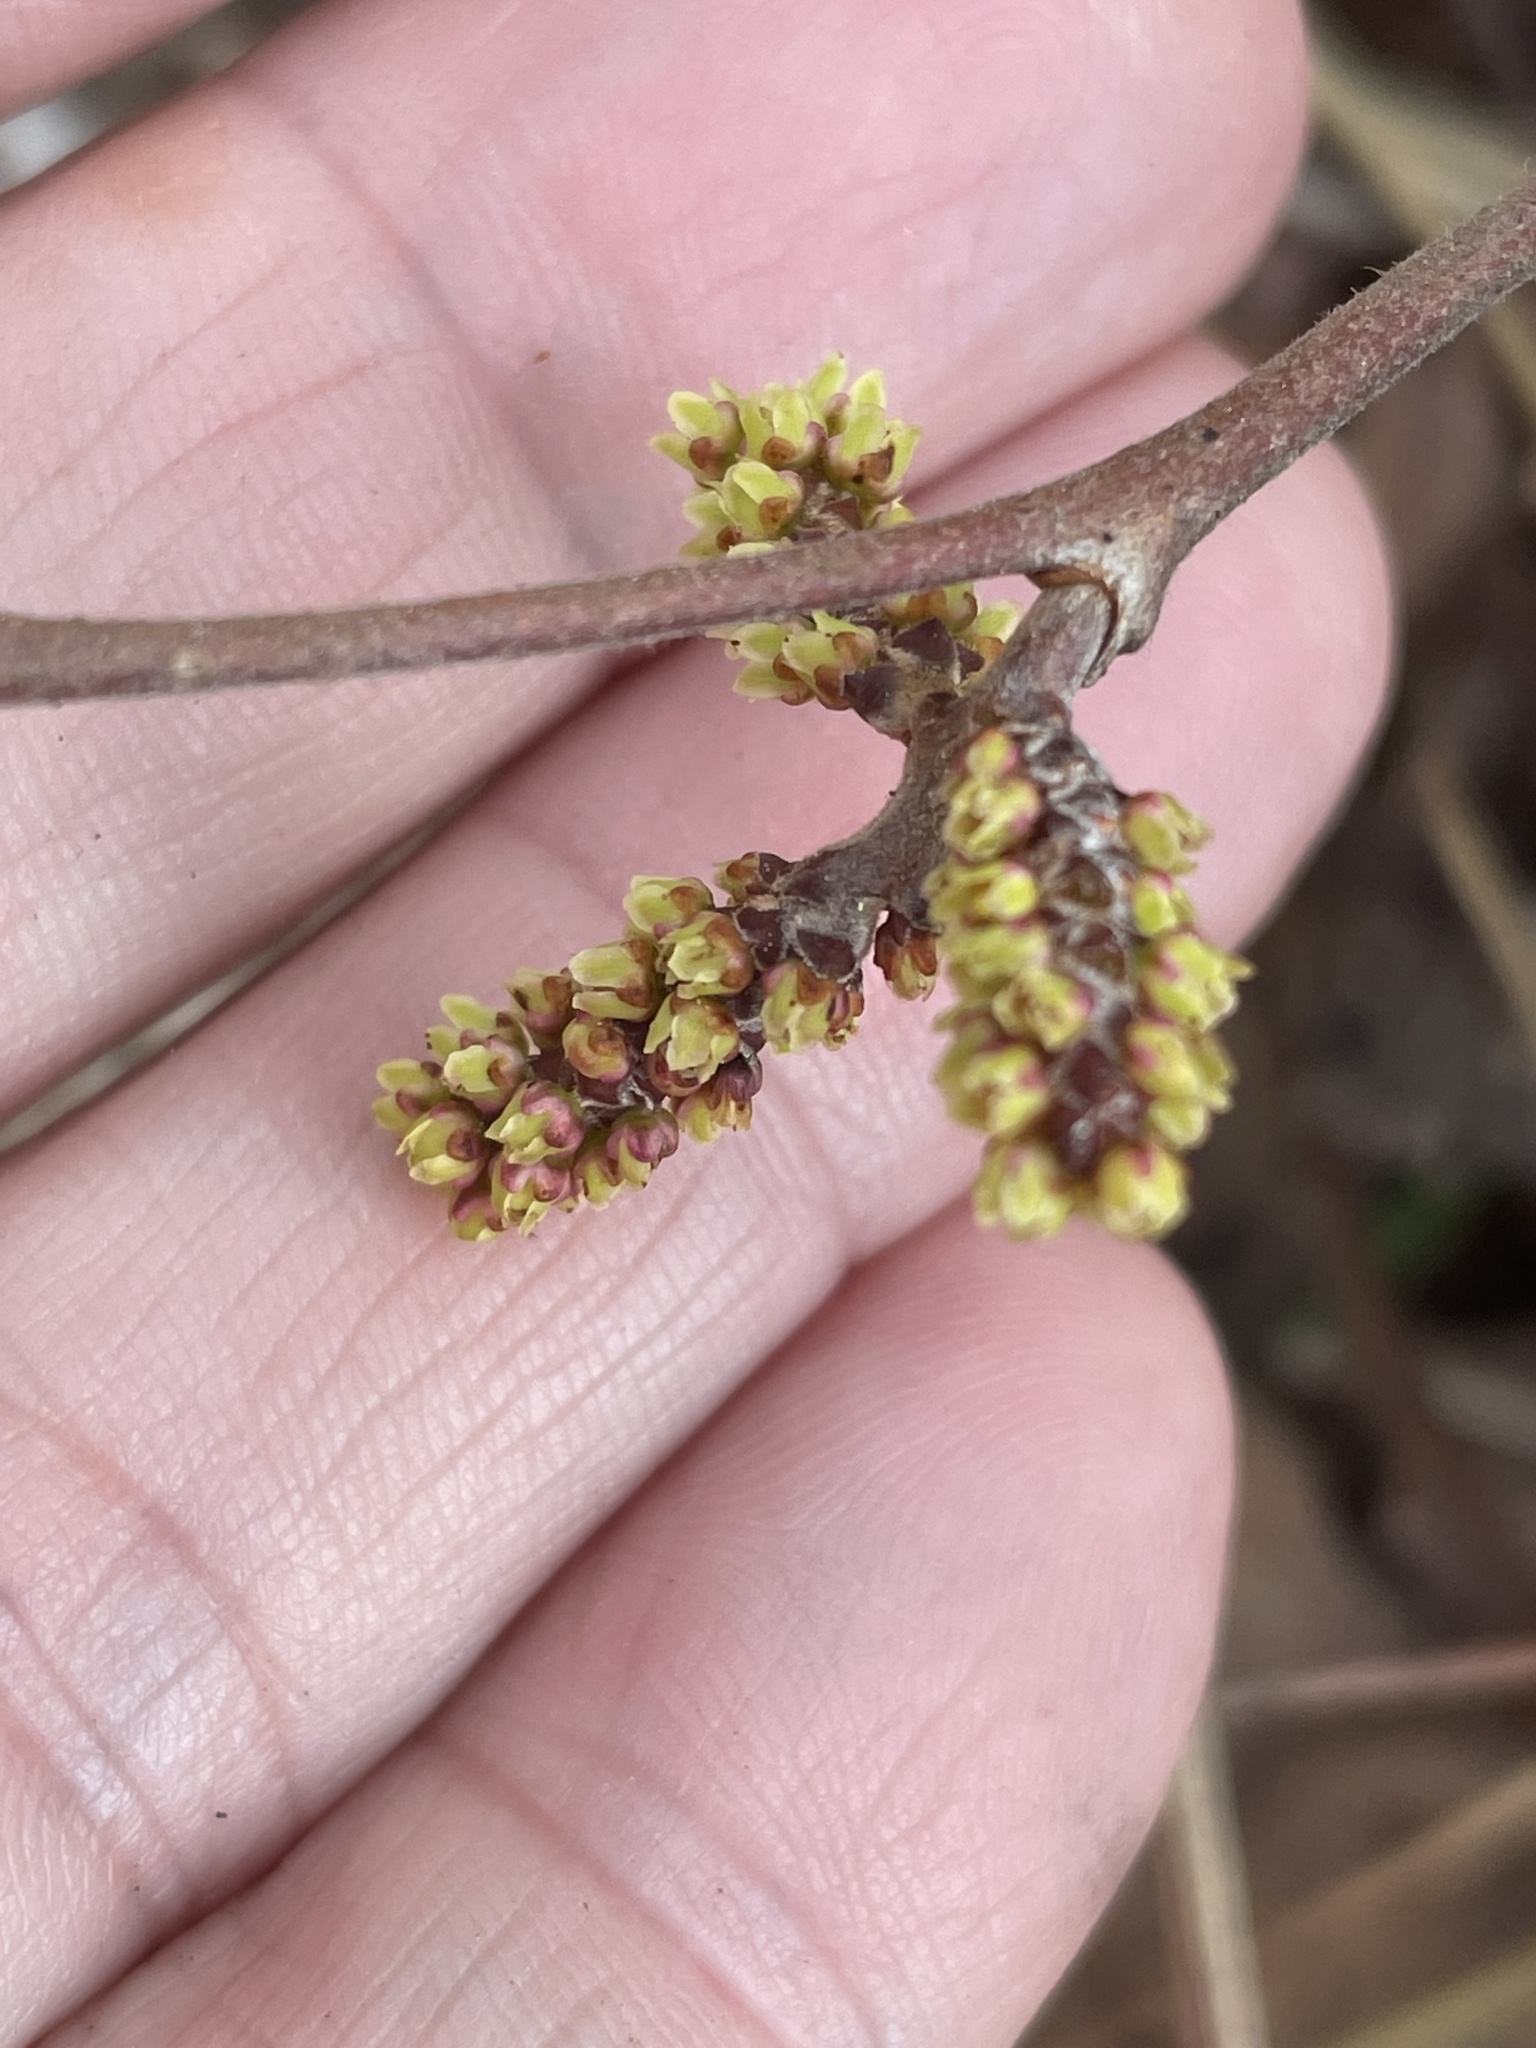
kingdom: Plantae
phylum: Tracheophyta
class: Magnoliopsida
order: Sapindales
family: Anacardiaceae
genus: Rhus
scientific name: Rhus aromatica
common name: Aromatic sumac
